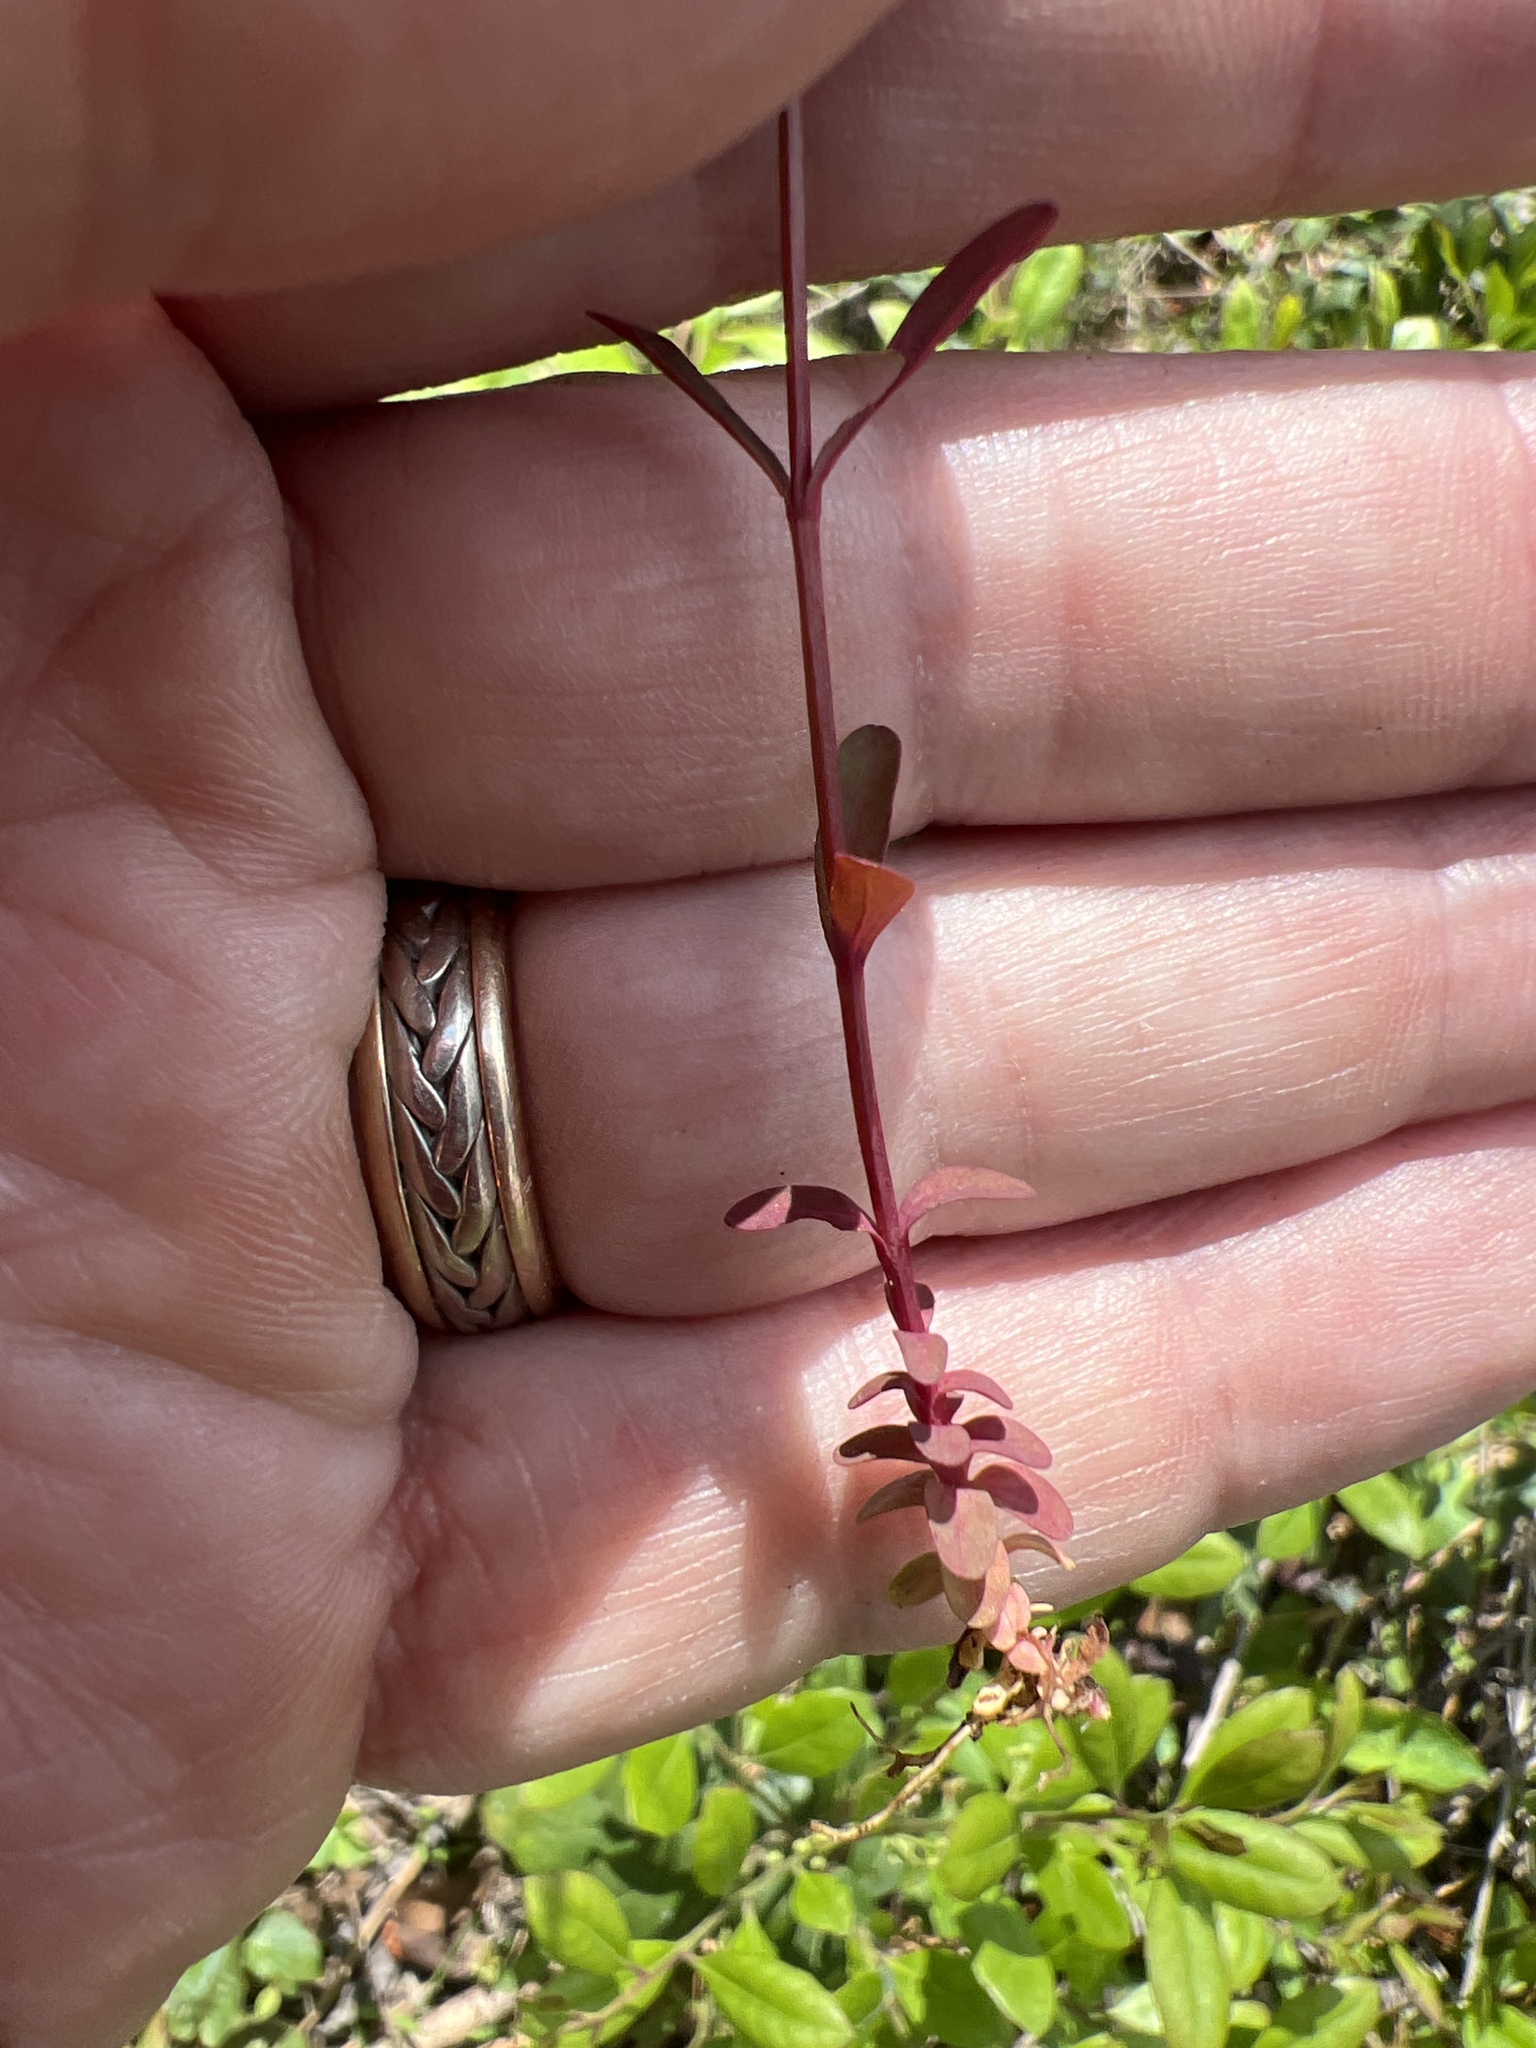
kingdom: Plantae
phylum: Tracheophyta
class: Magnoliopsida
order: Malpighiales
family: Hypericaceae
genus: Hypericum
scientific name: Hypericum canadense
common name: Irish st. john's-wort
